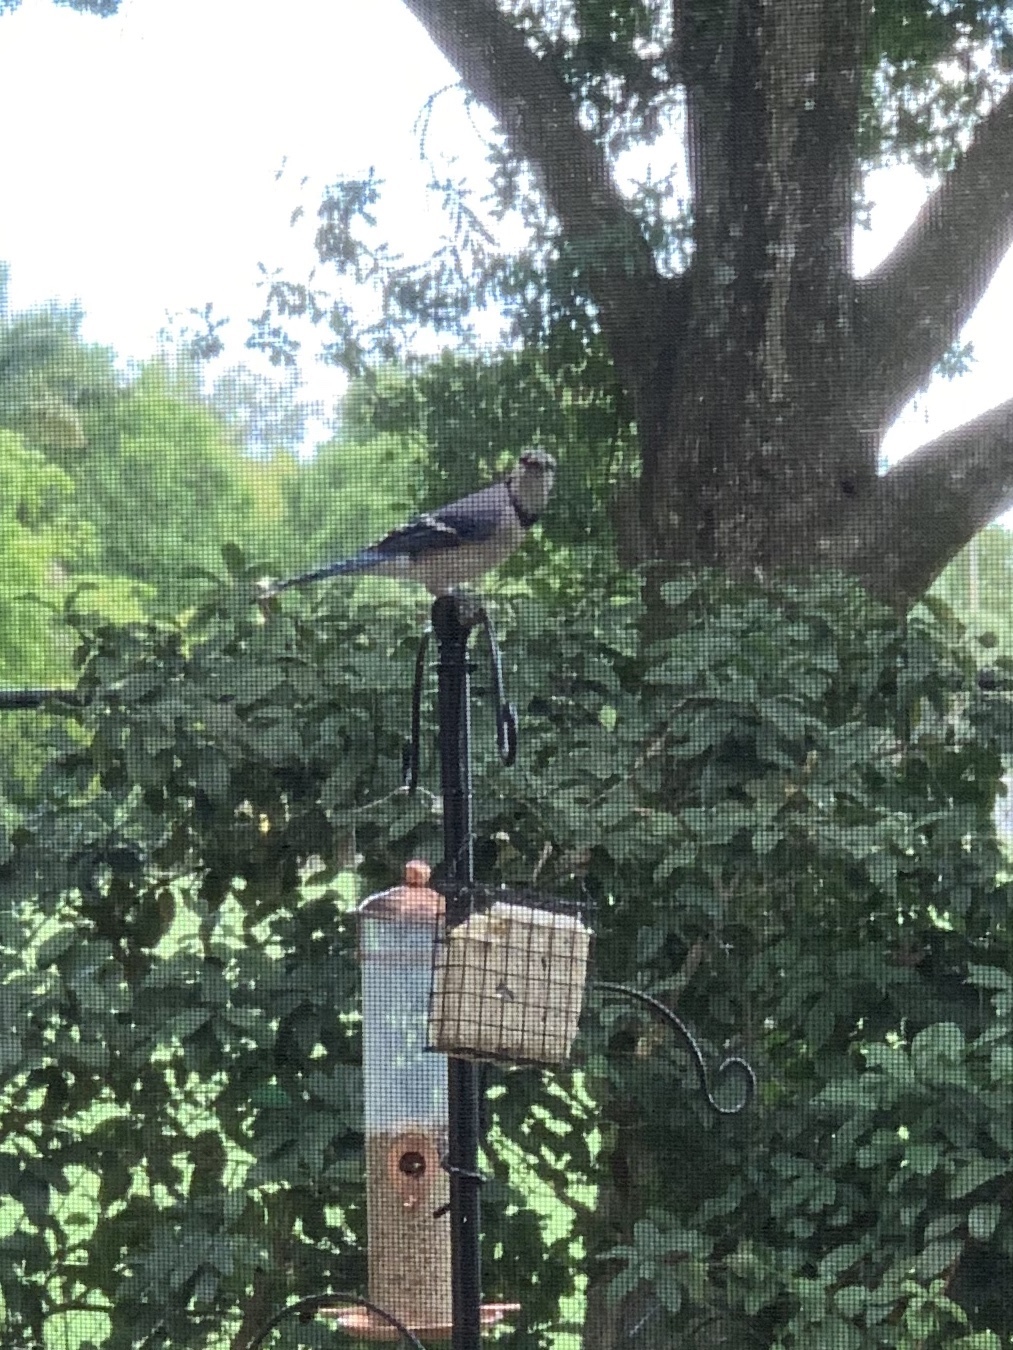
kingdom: Animalia
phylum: Chordata
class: Aves
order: Passeriformes
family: Corvidae
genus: Cyanocitta
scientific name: Cyanocitta cristata
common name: Blue jay
